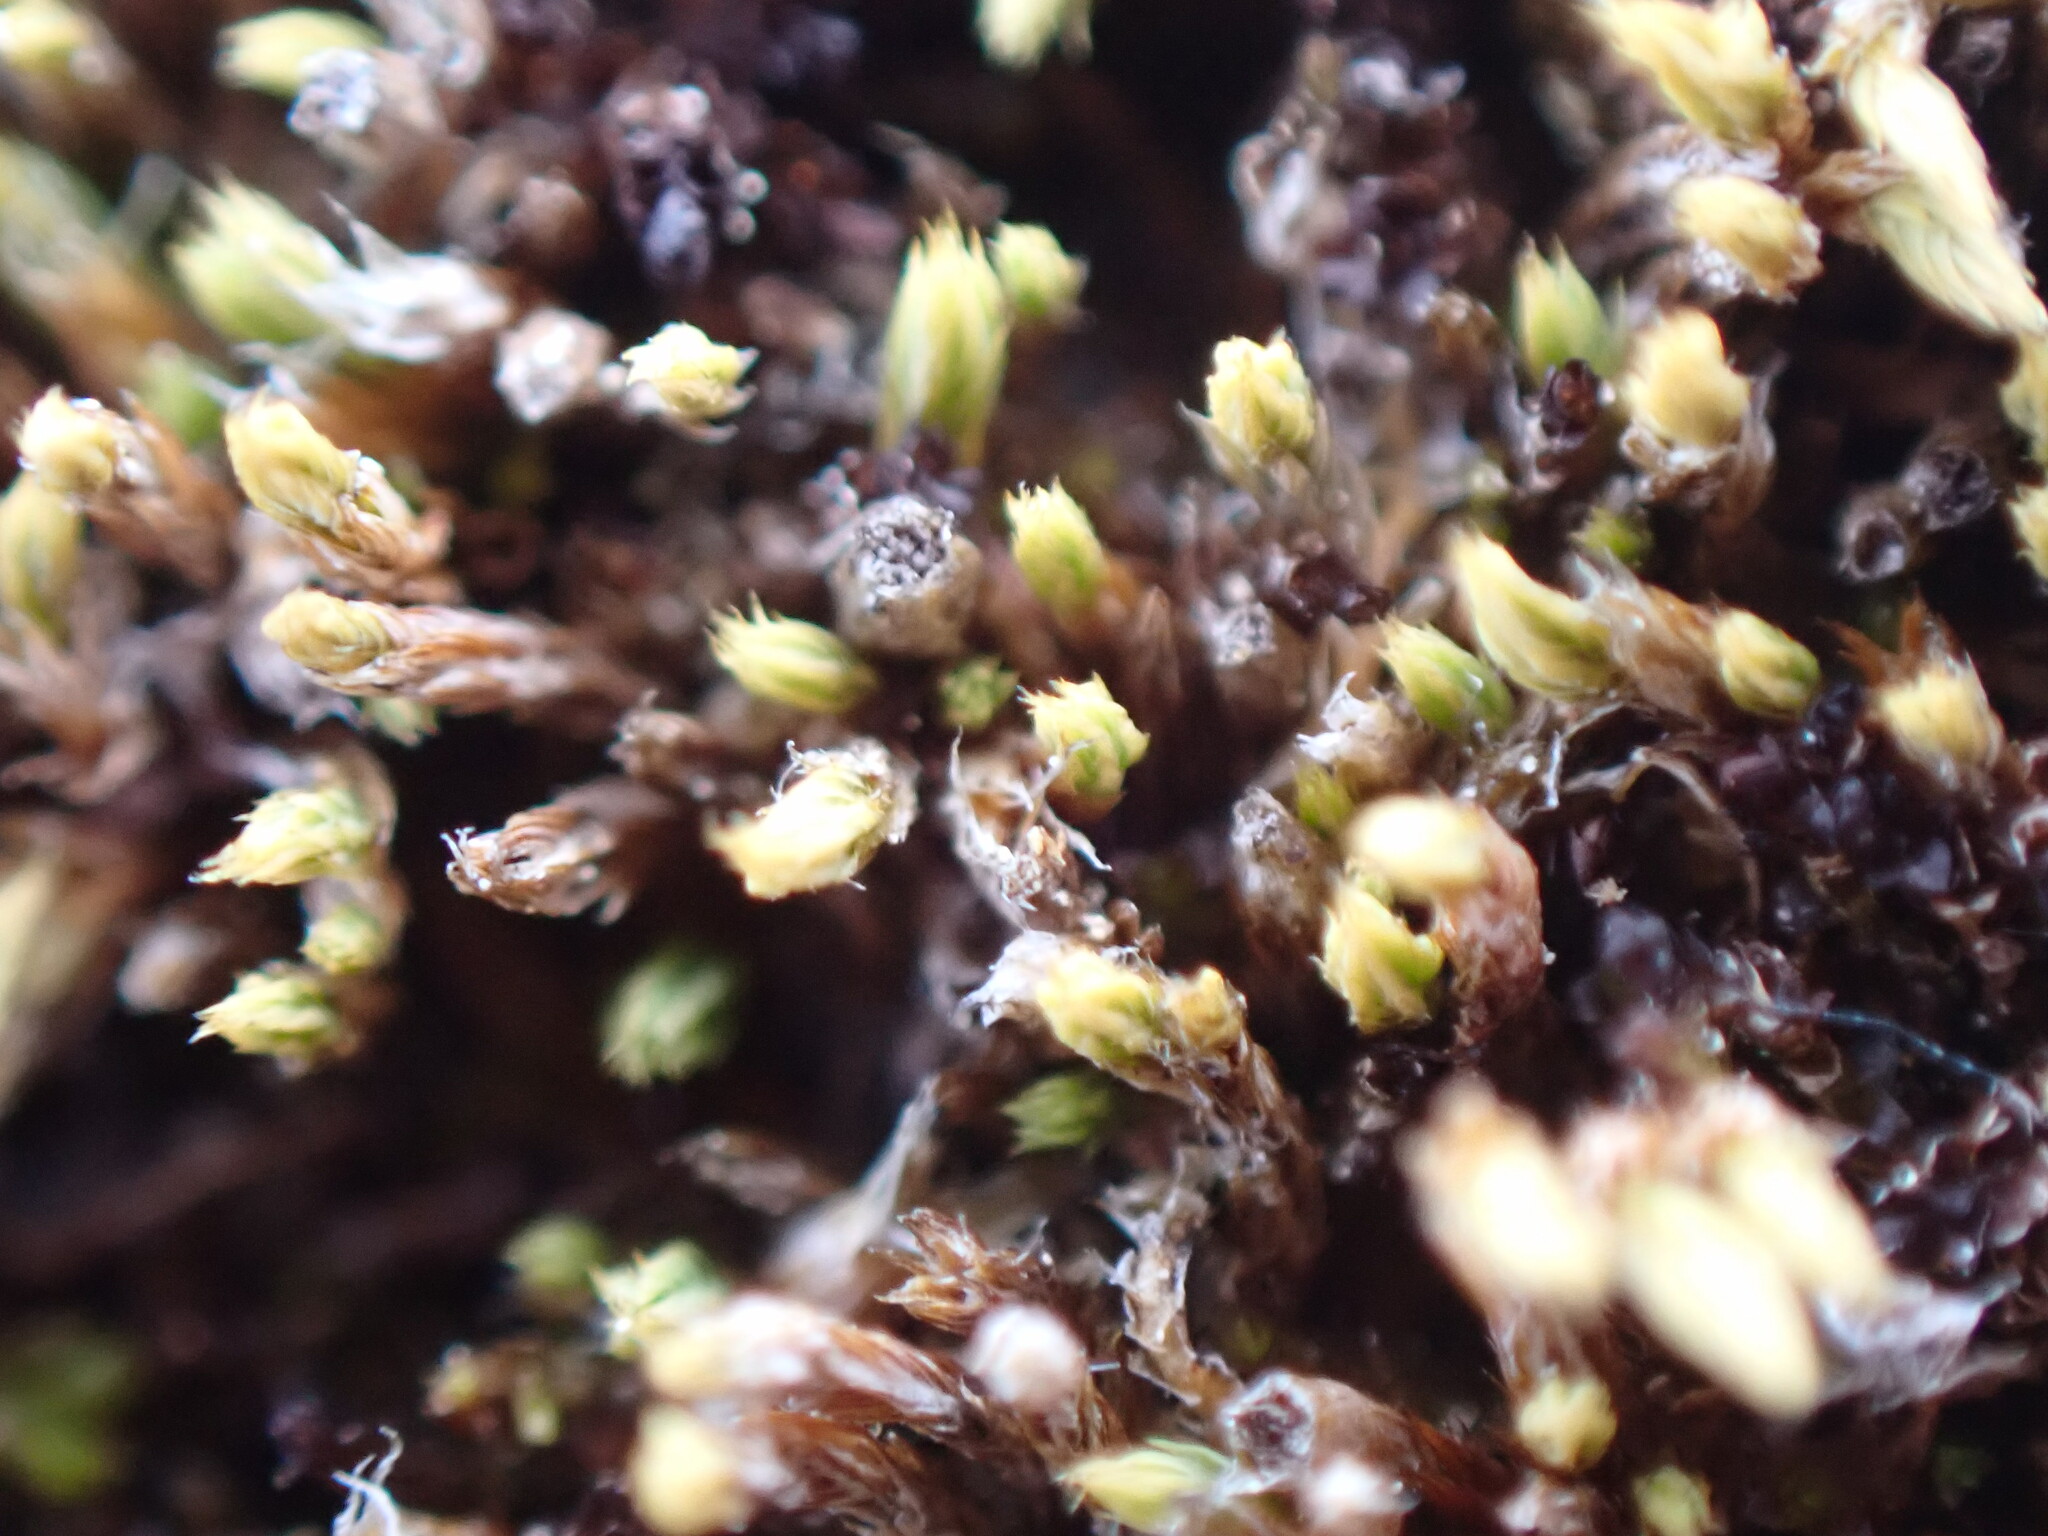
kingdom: Plantae
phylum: Bryophyta
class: Bryopsida
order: Bartramiales
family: Bartramiaceae
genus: Conostomum
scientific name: Conostomum tetragonum
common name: Helmet moss
